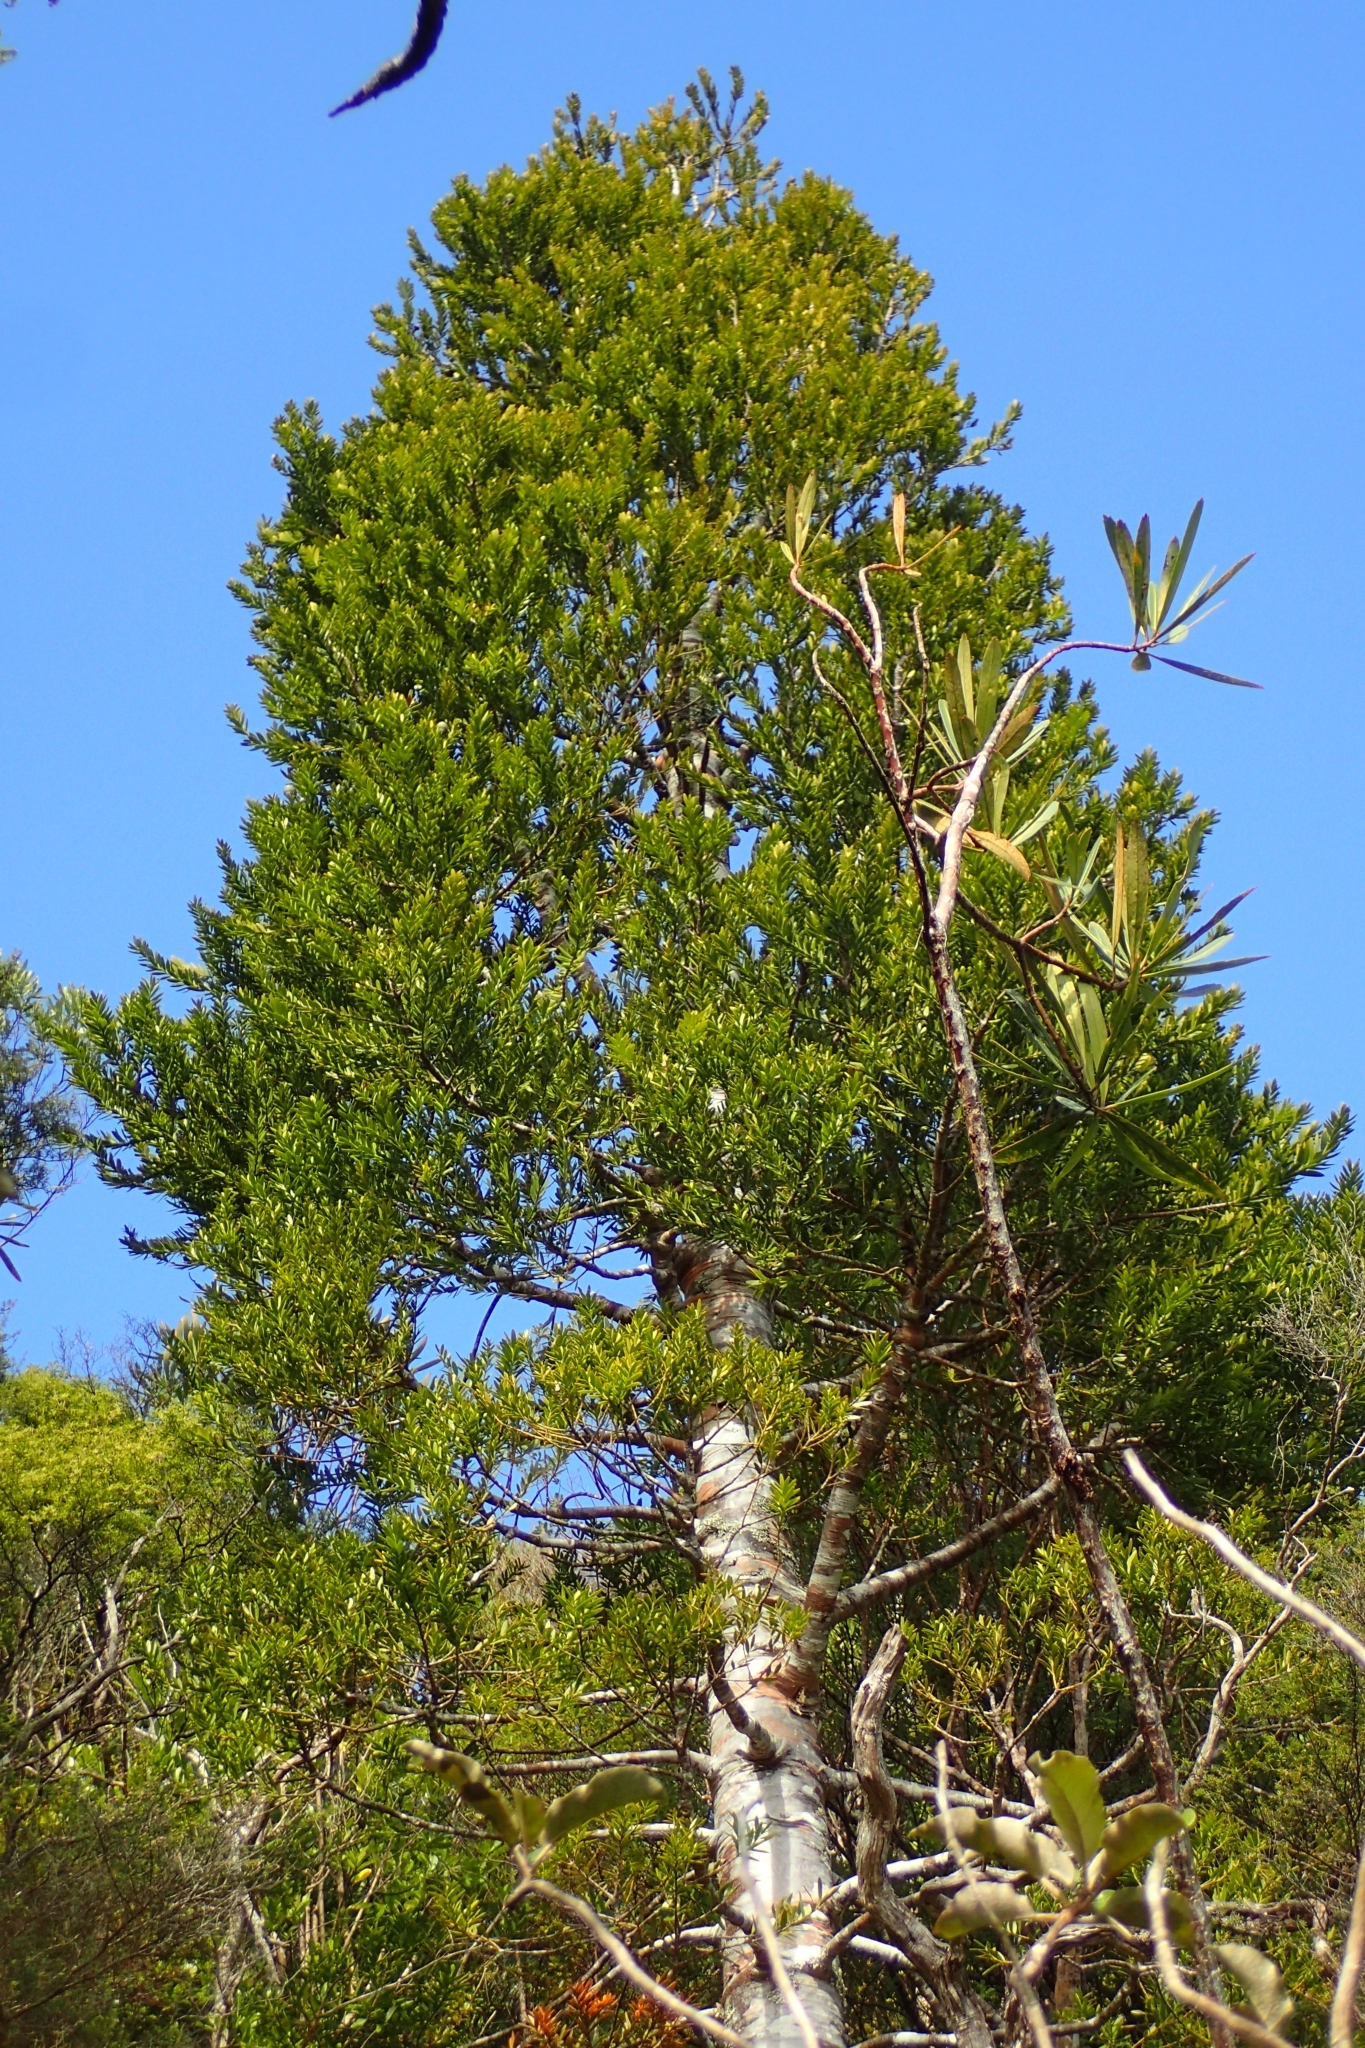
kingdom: Plantae
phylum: Tracheophyta
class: Pinopsida
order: Pinales
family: Araucariaceae
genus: Agathis
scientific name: Agathis australis
